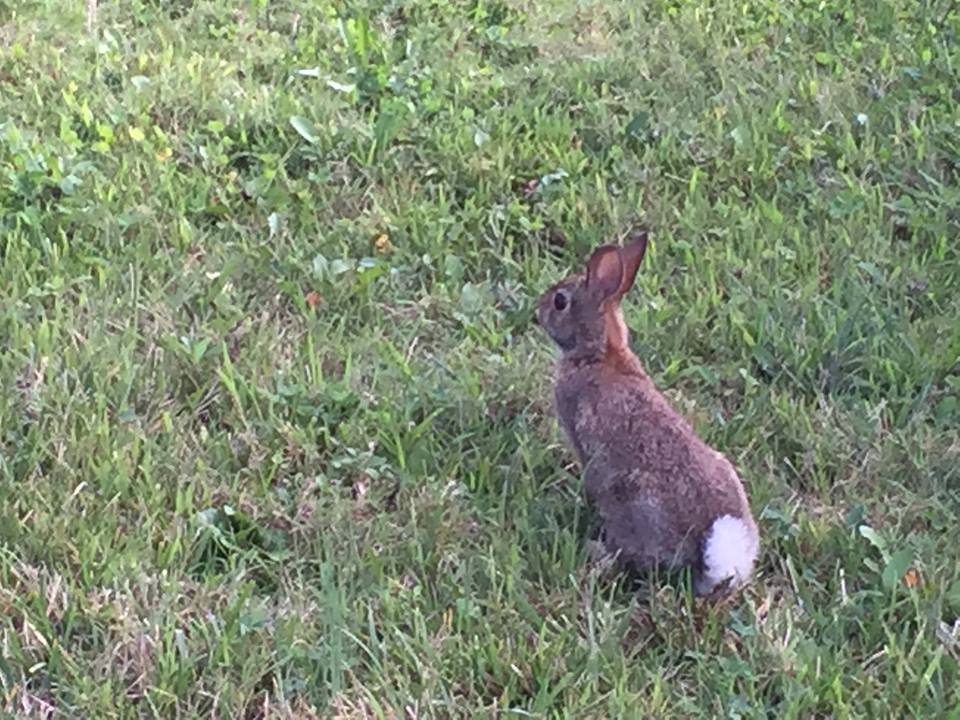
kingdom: Animalia
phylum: Chordata
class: Mammalia
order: Lagomorpha
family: Leporidae
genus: Sylvilagus
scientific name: Sylvilagus floridanus
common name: Eastern cottontail
